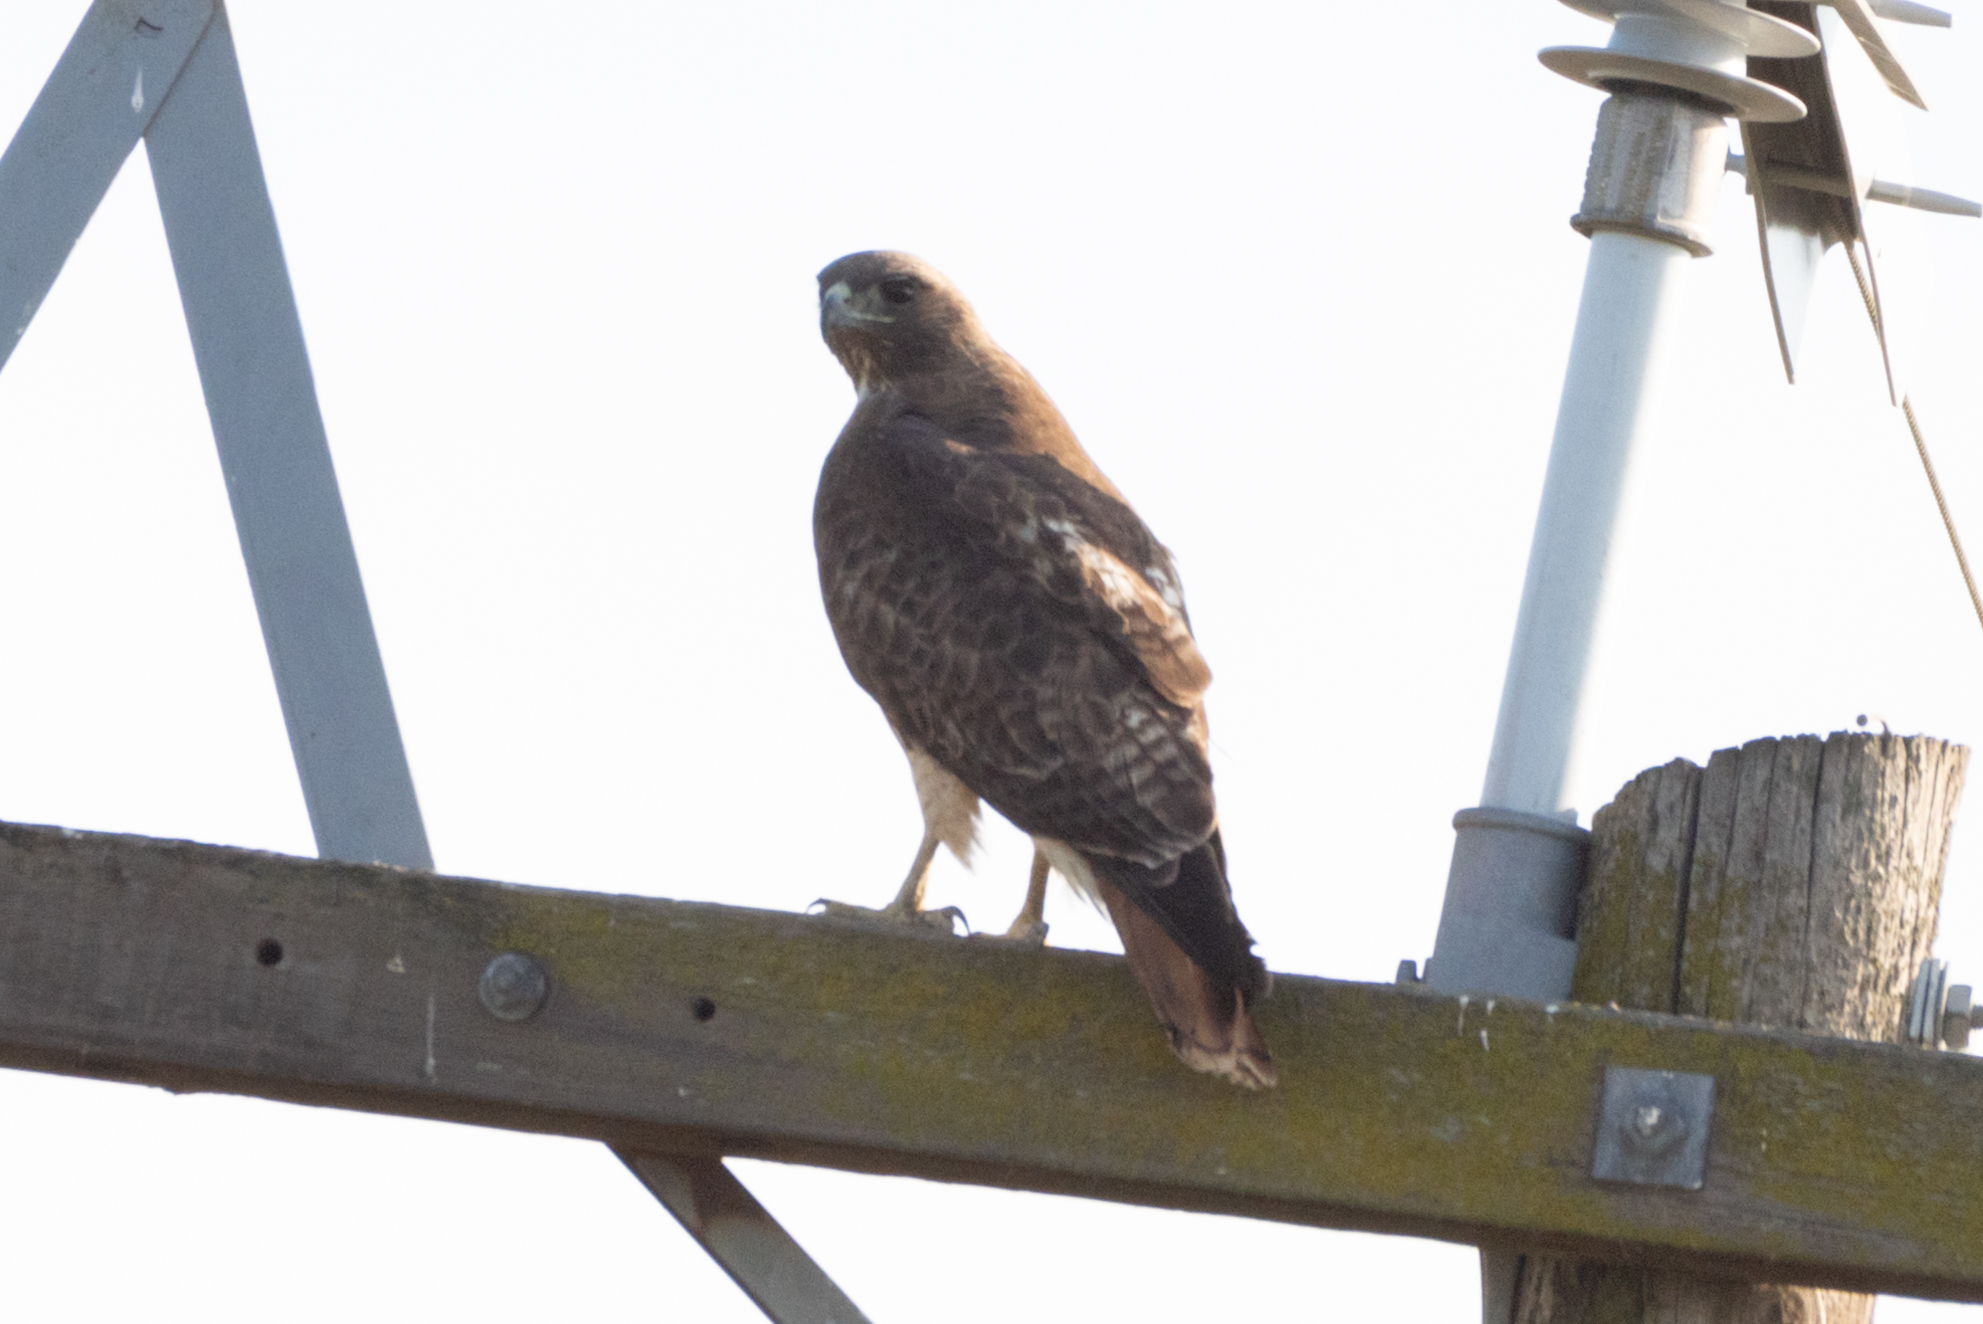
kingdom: Animalia
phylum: Chordata
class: Aves
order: Accipitriformes
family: Accipitridae
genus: Buteo
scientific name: Buteo jamaicensis
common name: Red-tailed hawk
